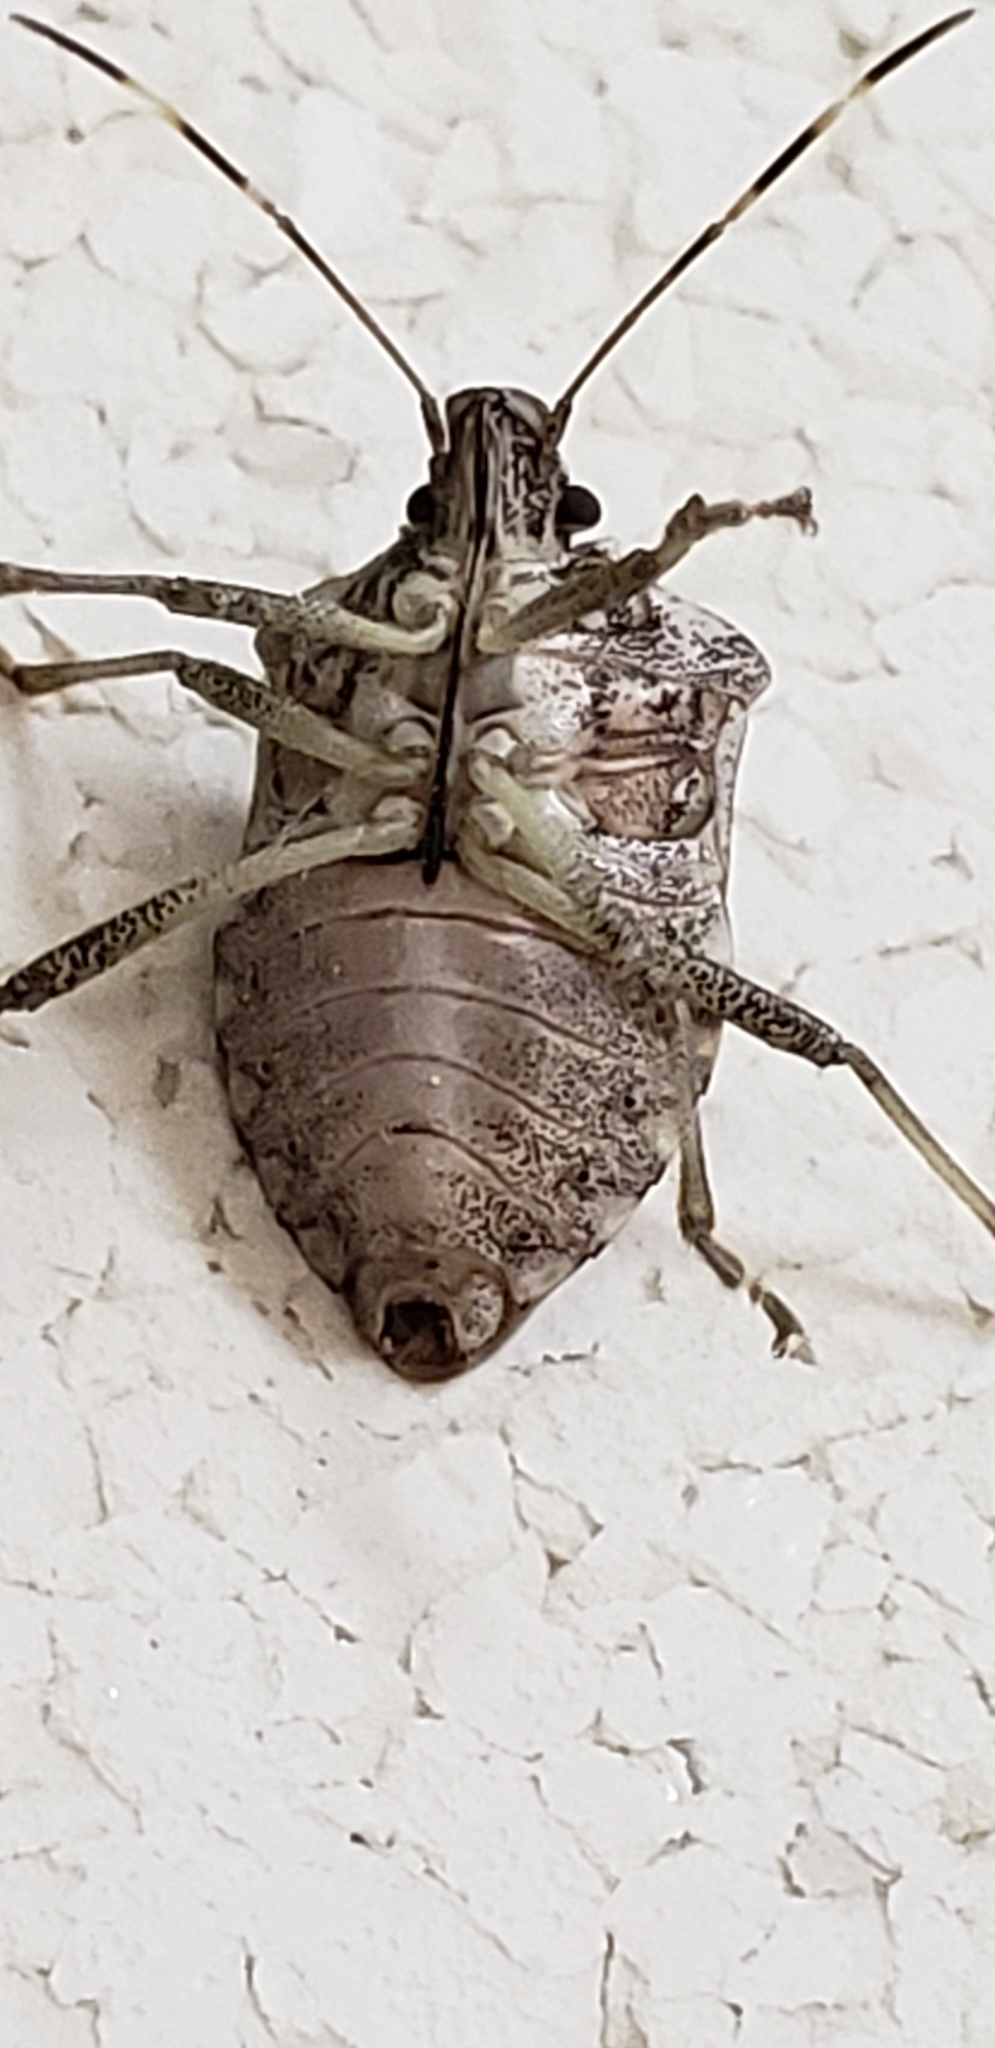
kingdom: Animalia
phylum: Arthropoda
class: Insecta
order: Hemiptera
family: Pentatomidae
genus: Halyomorpha
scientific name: Halyomorpha halys
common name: Brown marmorated stink bug
